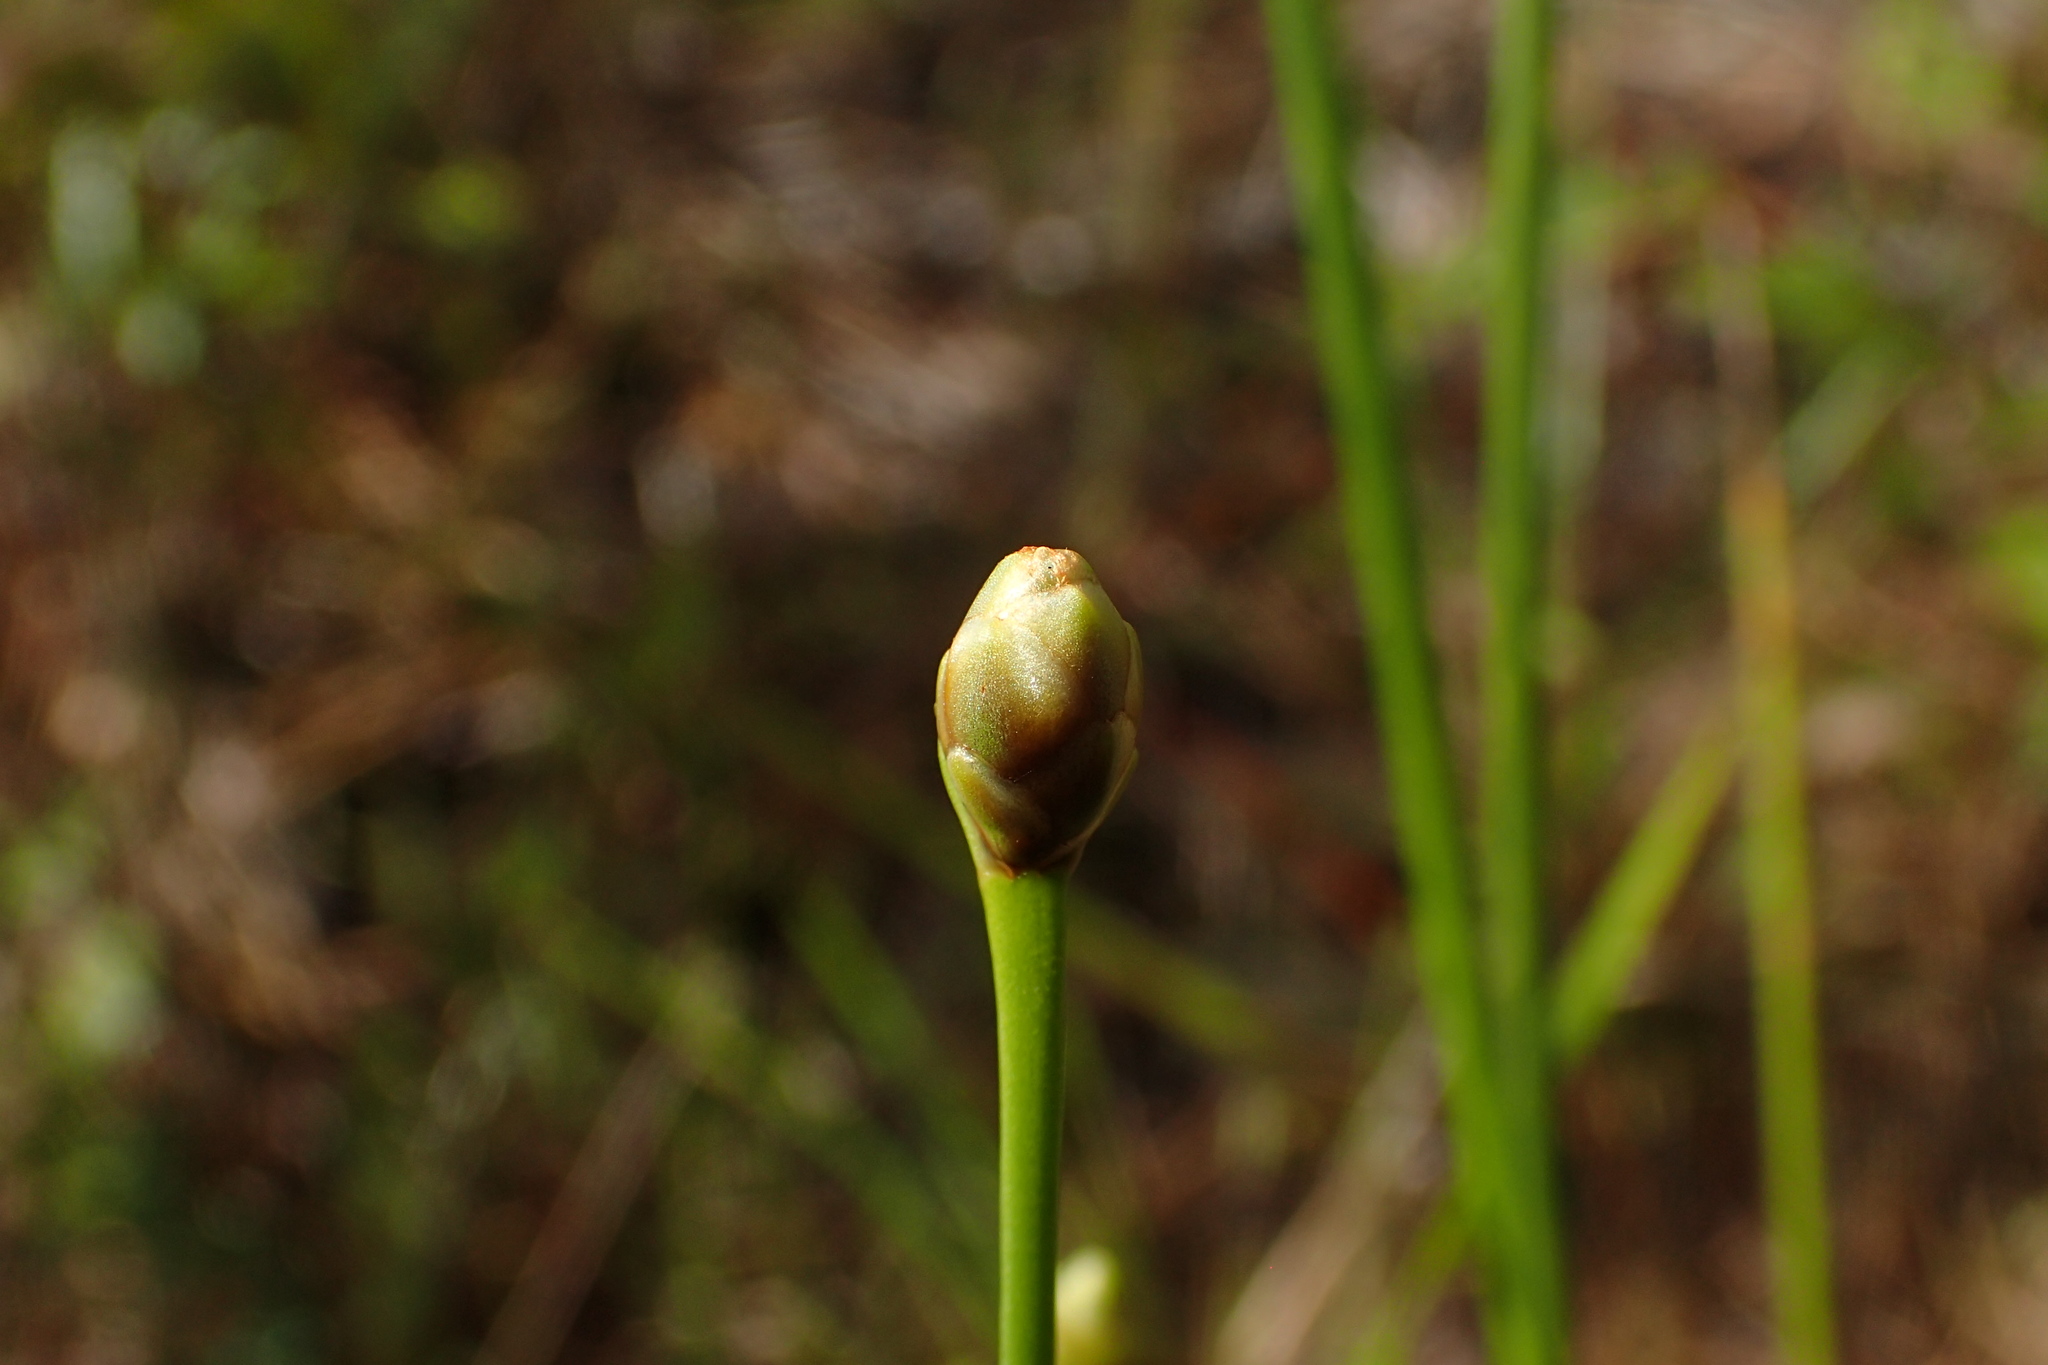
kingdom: Plantae
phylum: Tracheophyta
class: Liliopsida
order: Poales
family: Xyridaceae
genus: Xyris
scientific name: Xyris caroliniana
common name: Carolina yellow-eyed-grass
